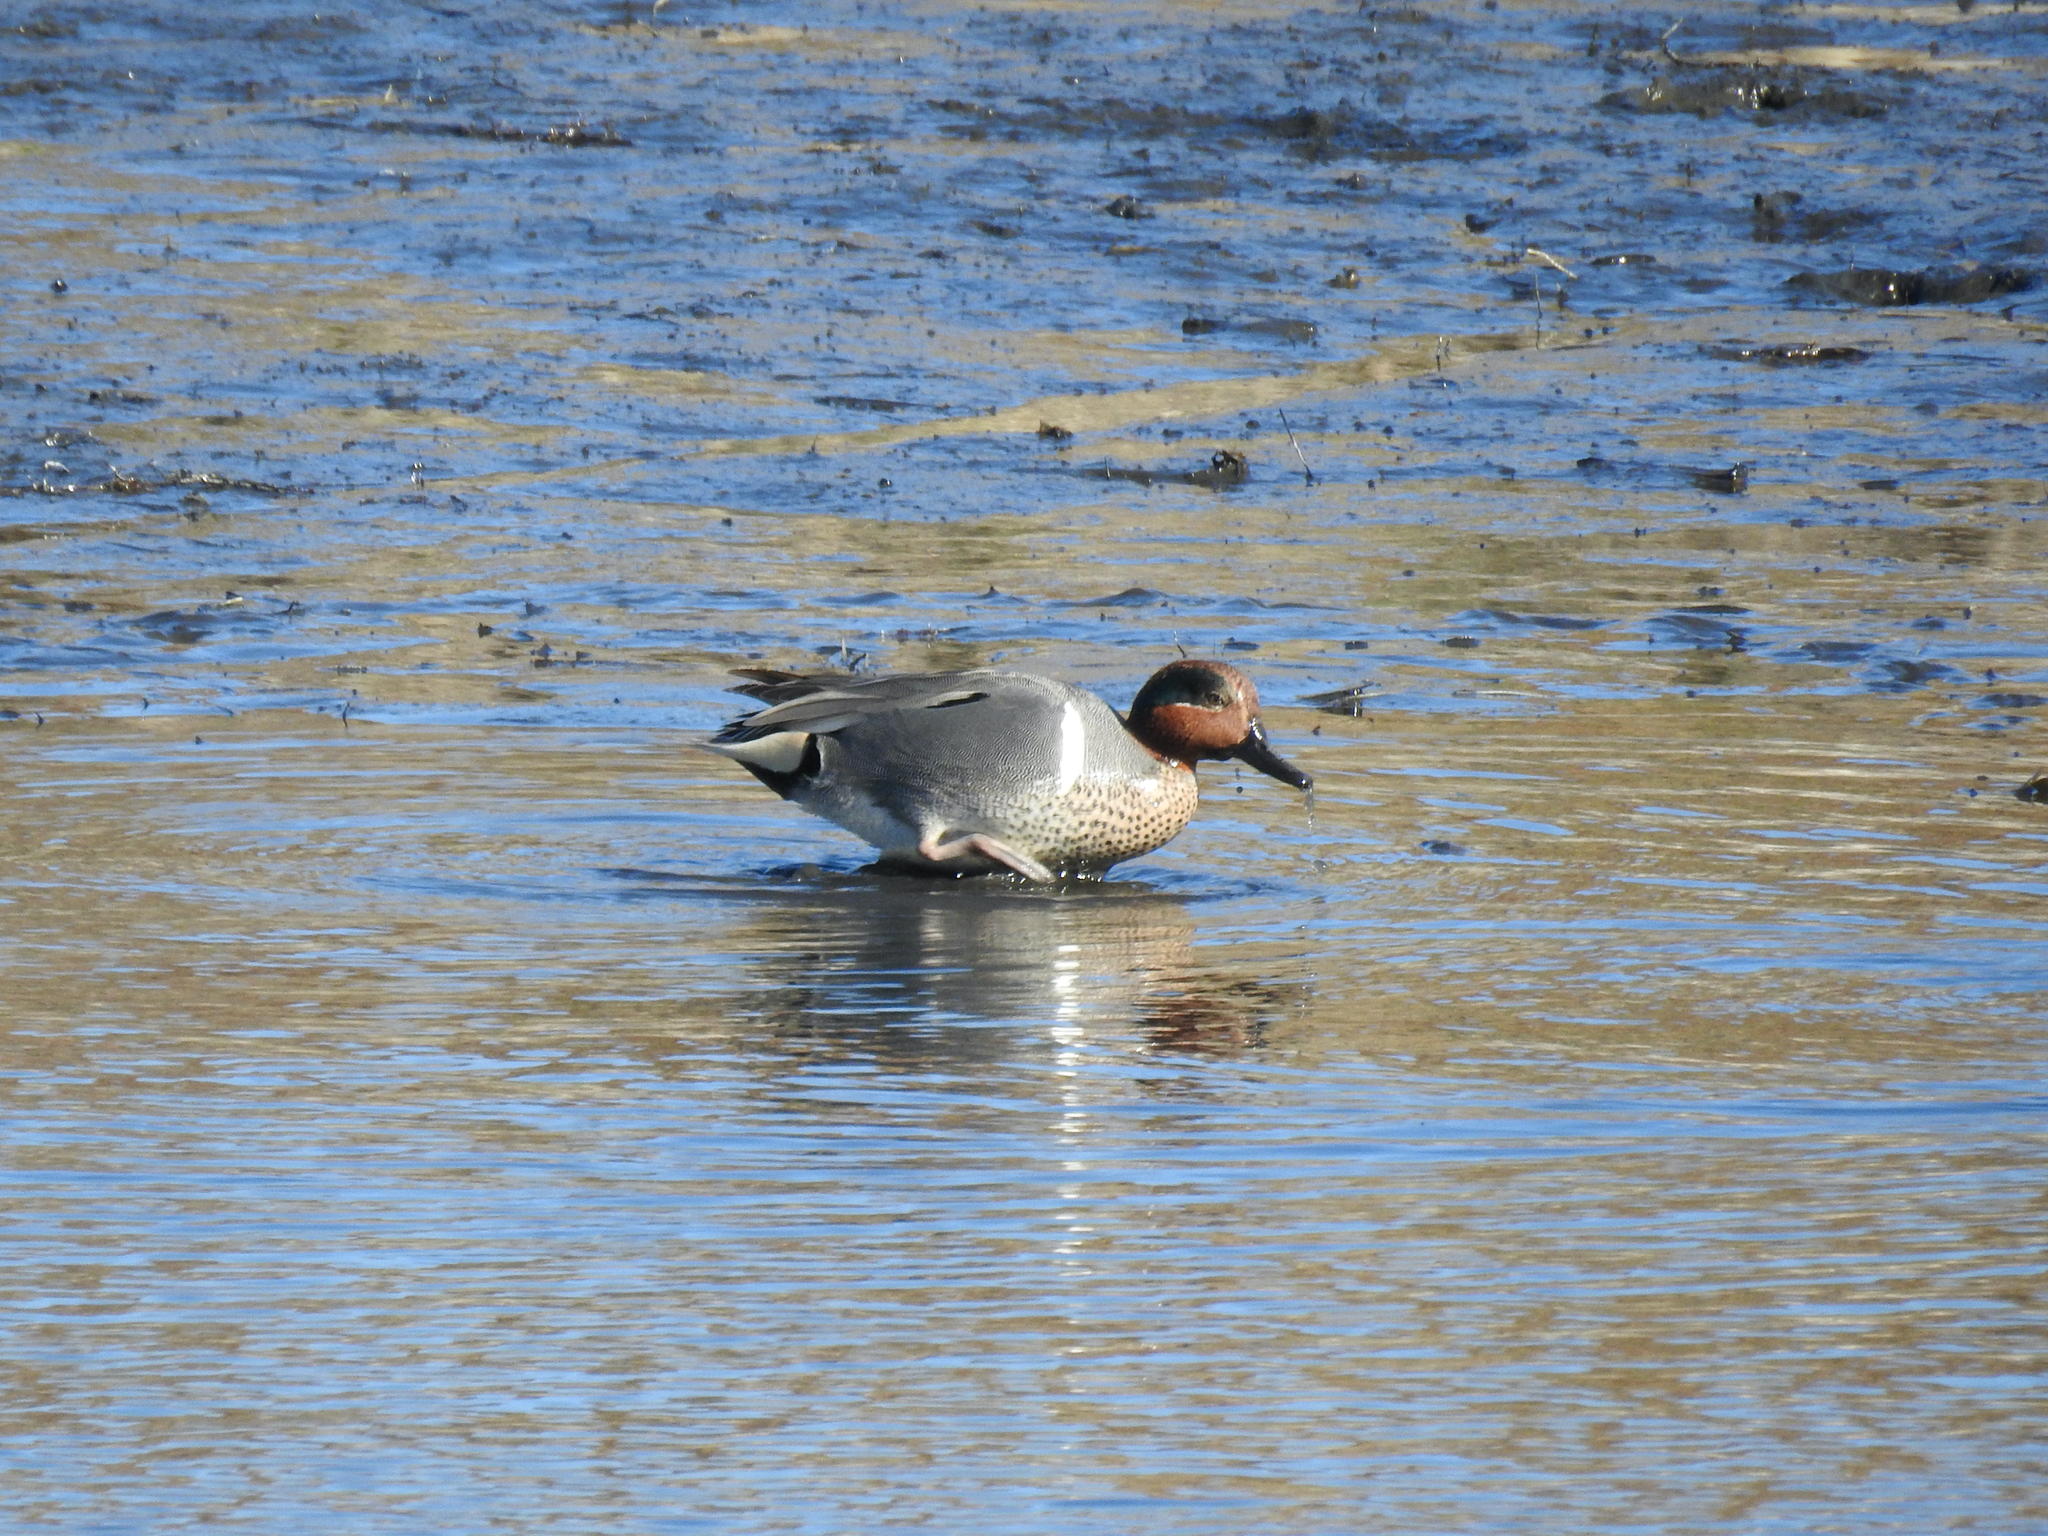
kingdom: Animalia
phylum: Chordata
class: Aves
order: Anseriformes
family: Anatidae
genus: Anas
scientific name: Anas crecca
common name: Eurasian teal
